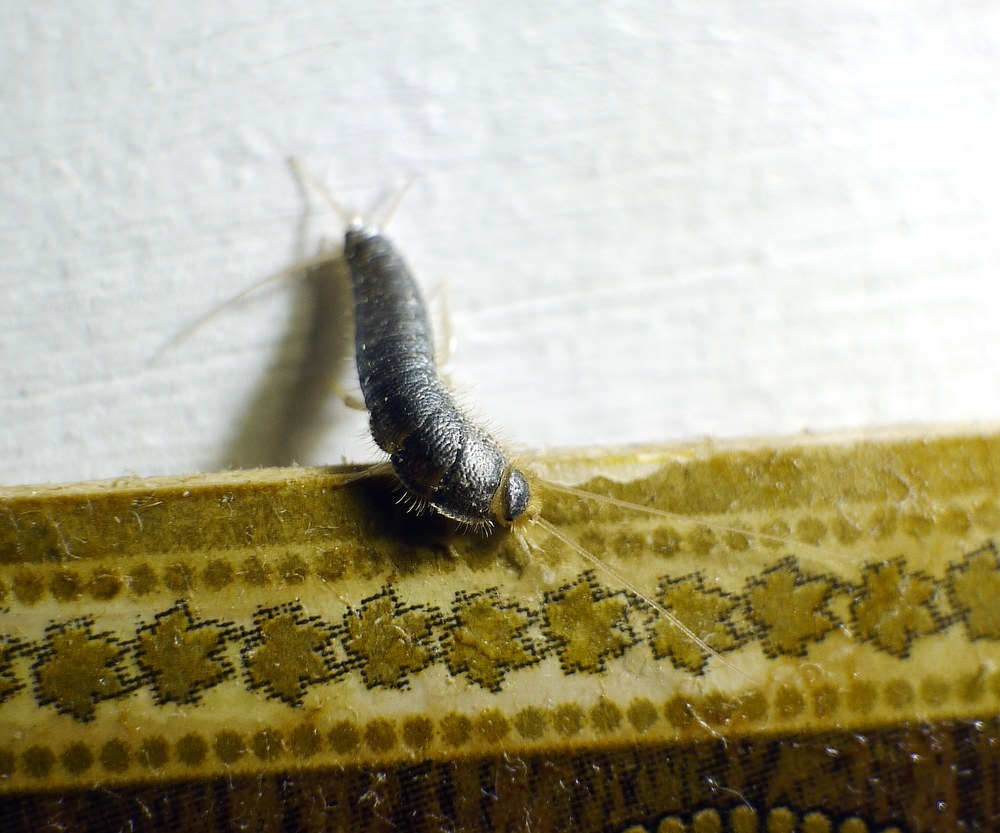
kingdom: Animalia
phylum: Arthropoda
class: Insecta
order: Zygentoma
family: Lepismatidae
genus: Ctenolepisma
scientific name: Ctenolepisma longicaudatum
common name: Silverfish
